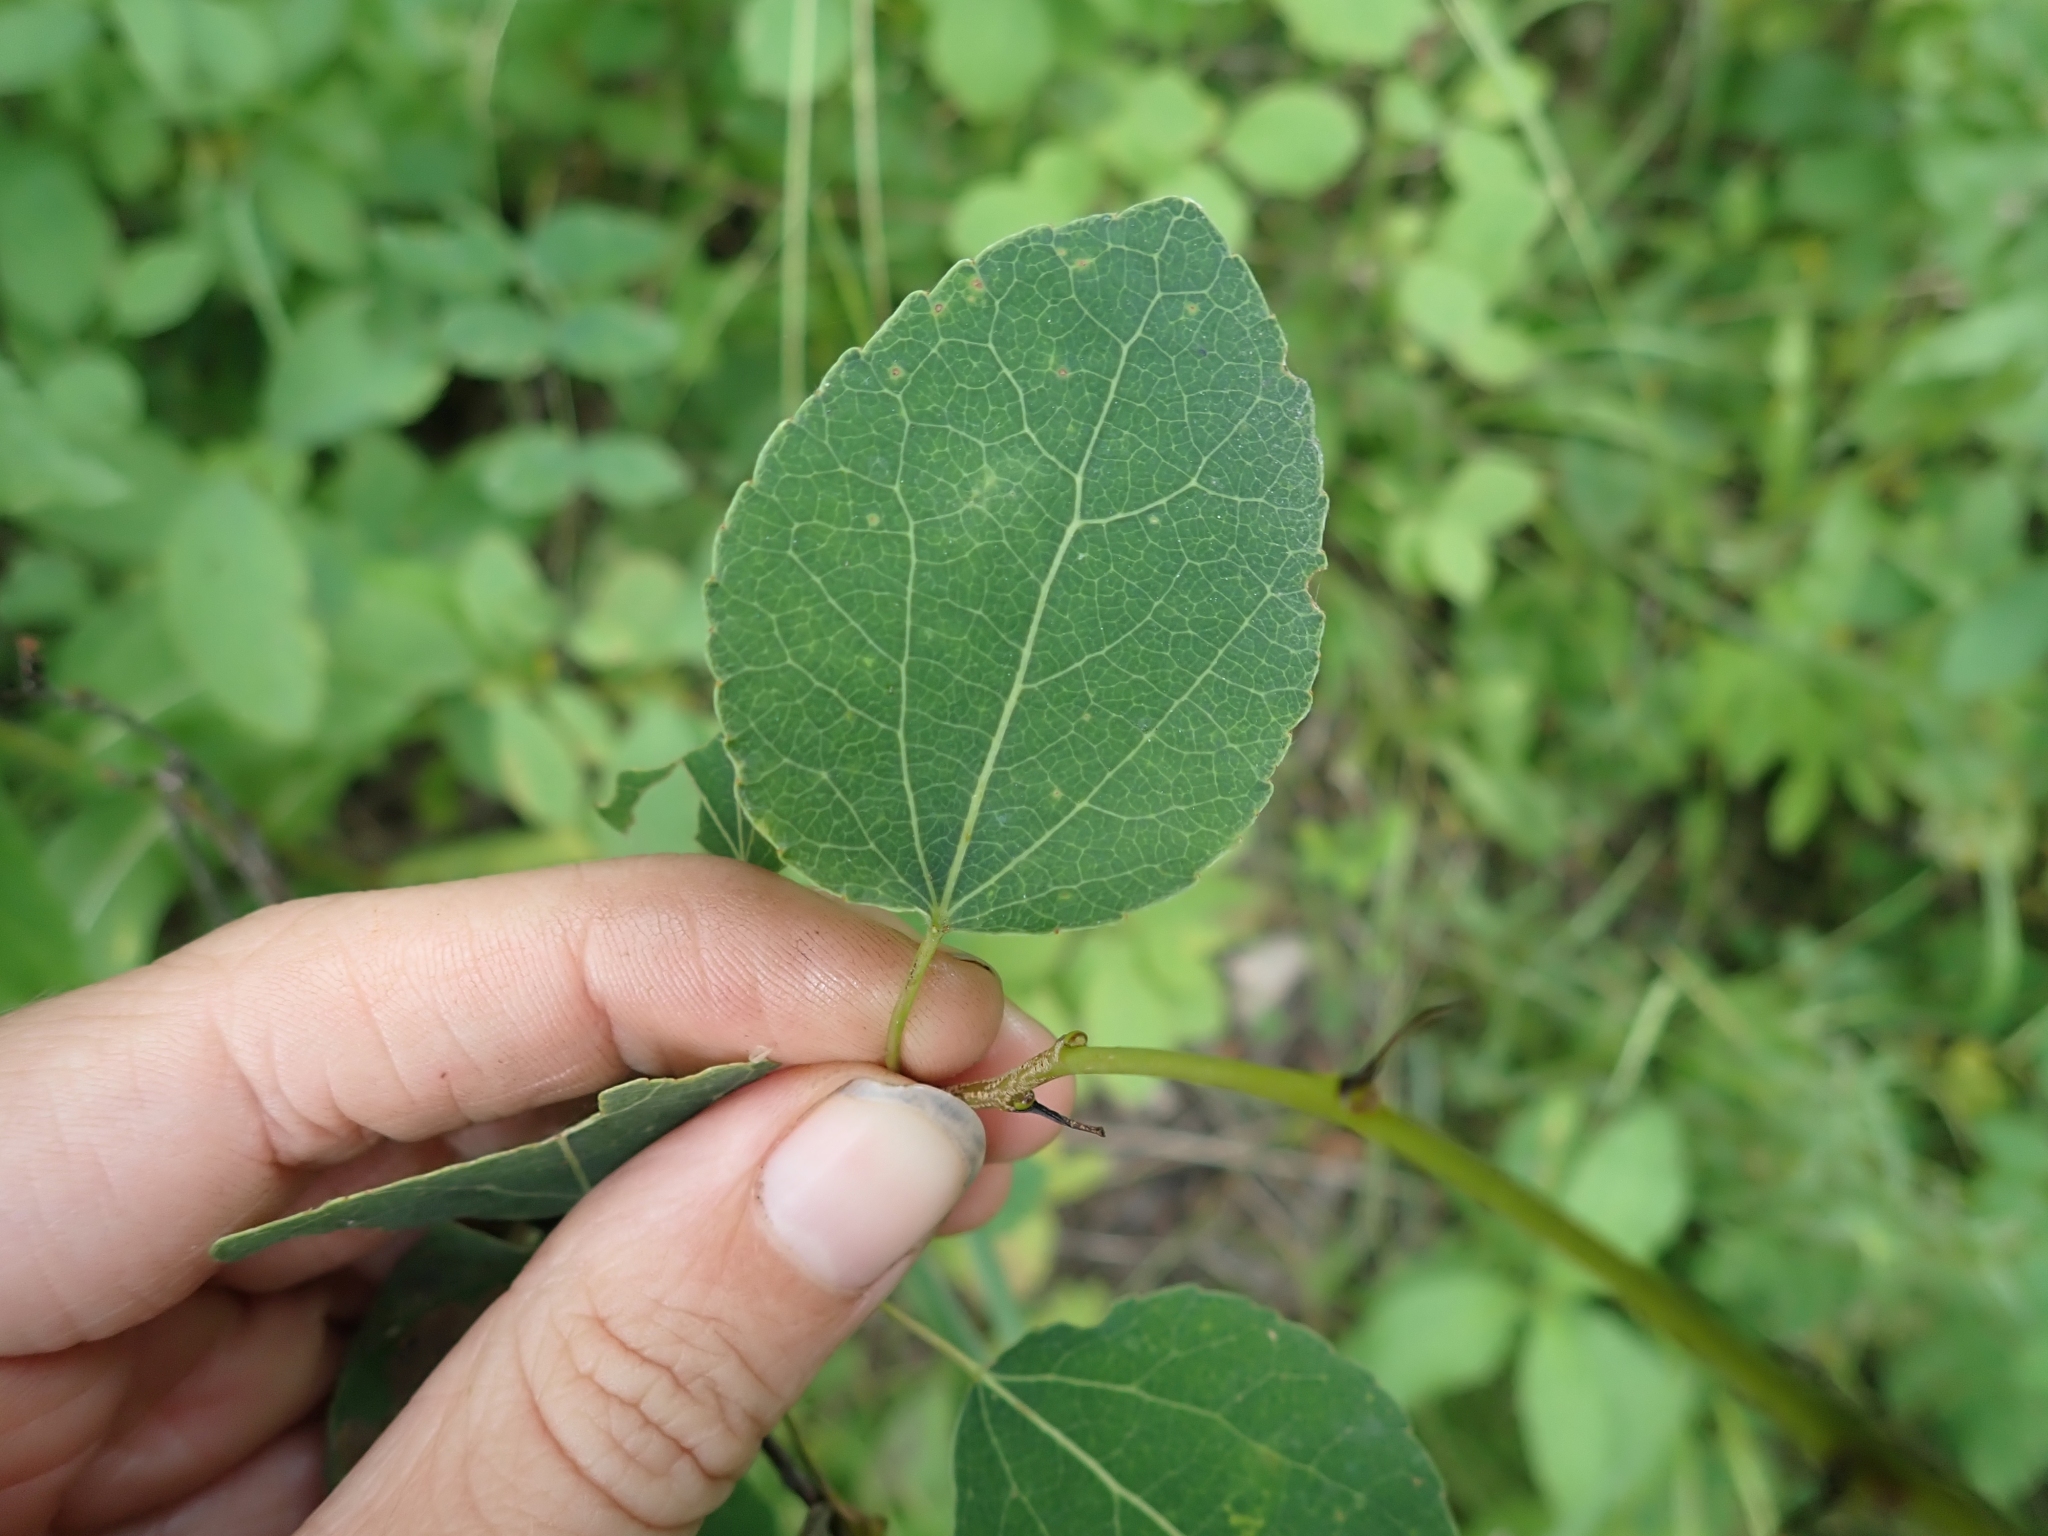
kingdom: Plantae
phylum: Tracheophyta
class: Magnoliopsida
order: Malpighiales
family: Salicaceae
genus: Populus
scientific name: Populus tremuloides
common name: Quaking aspen
